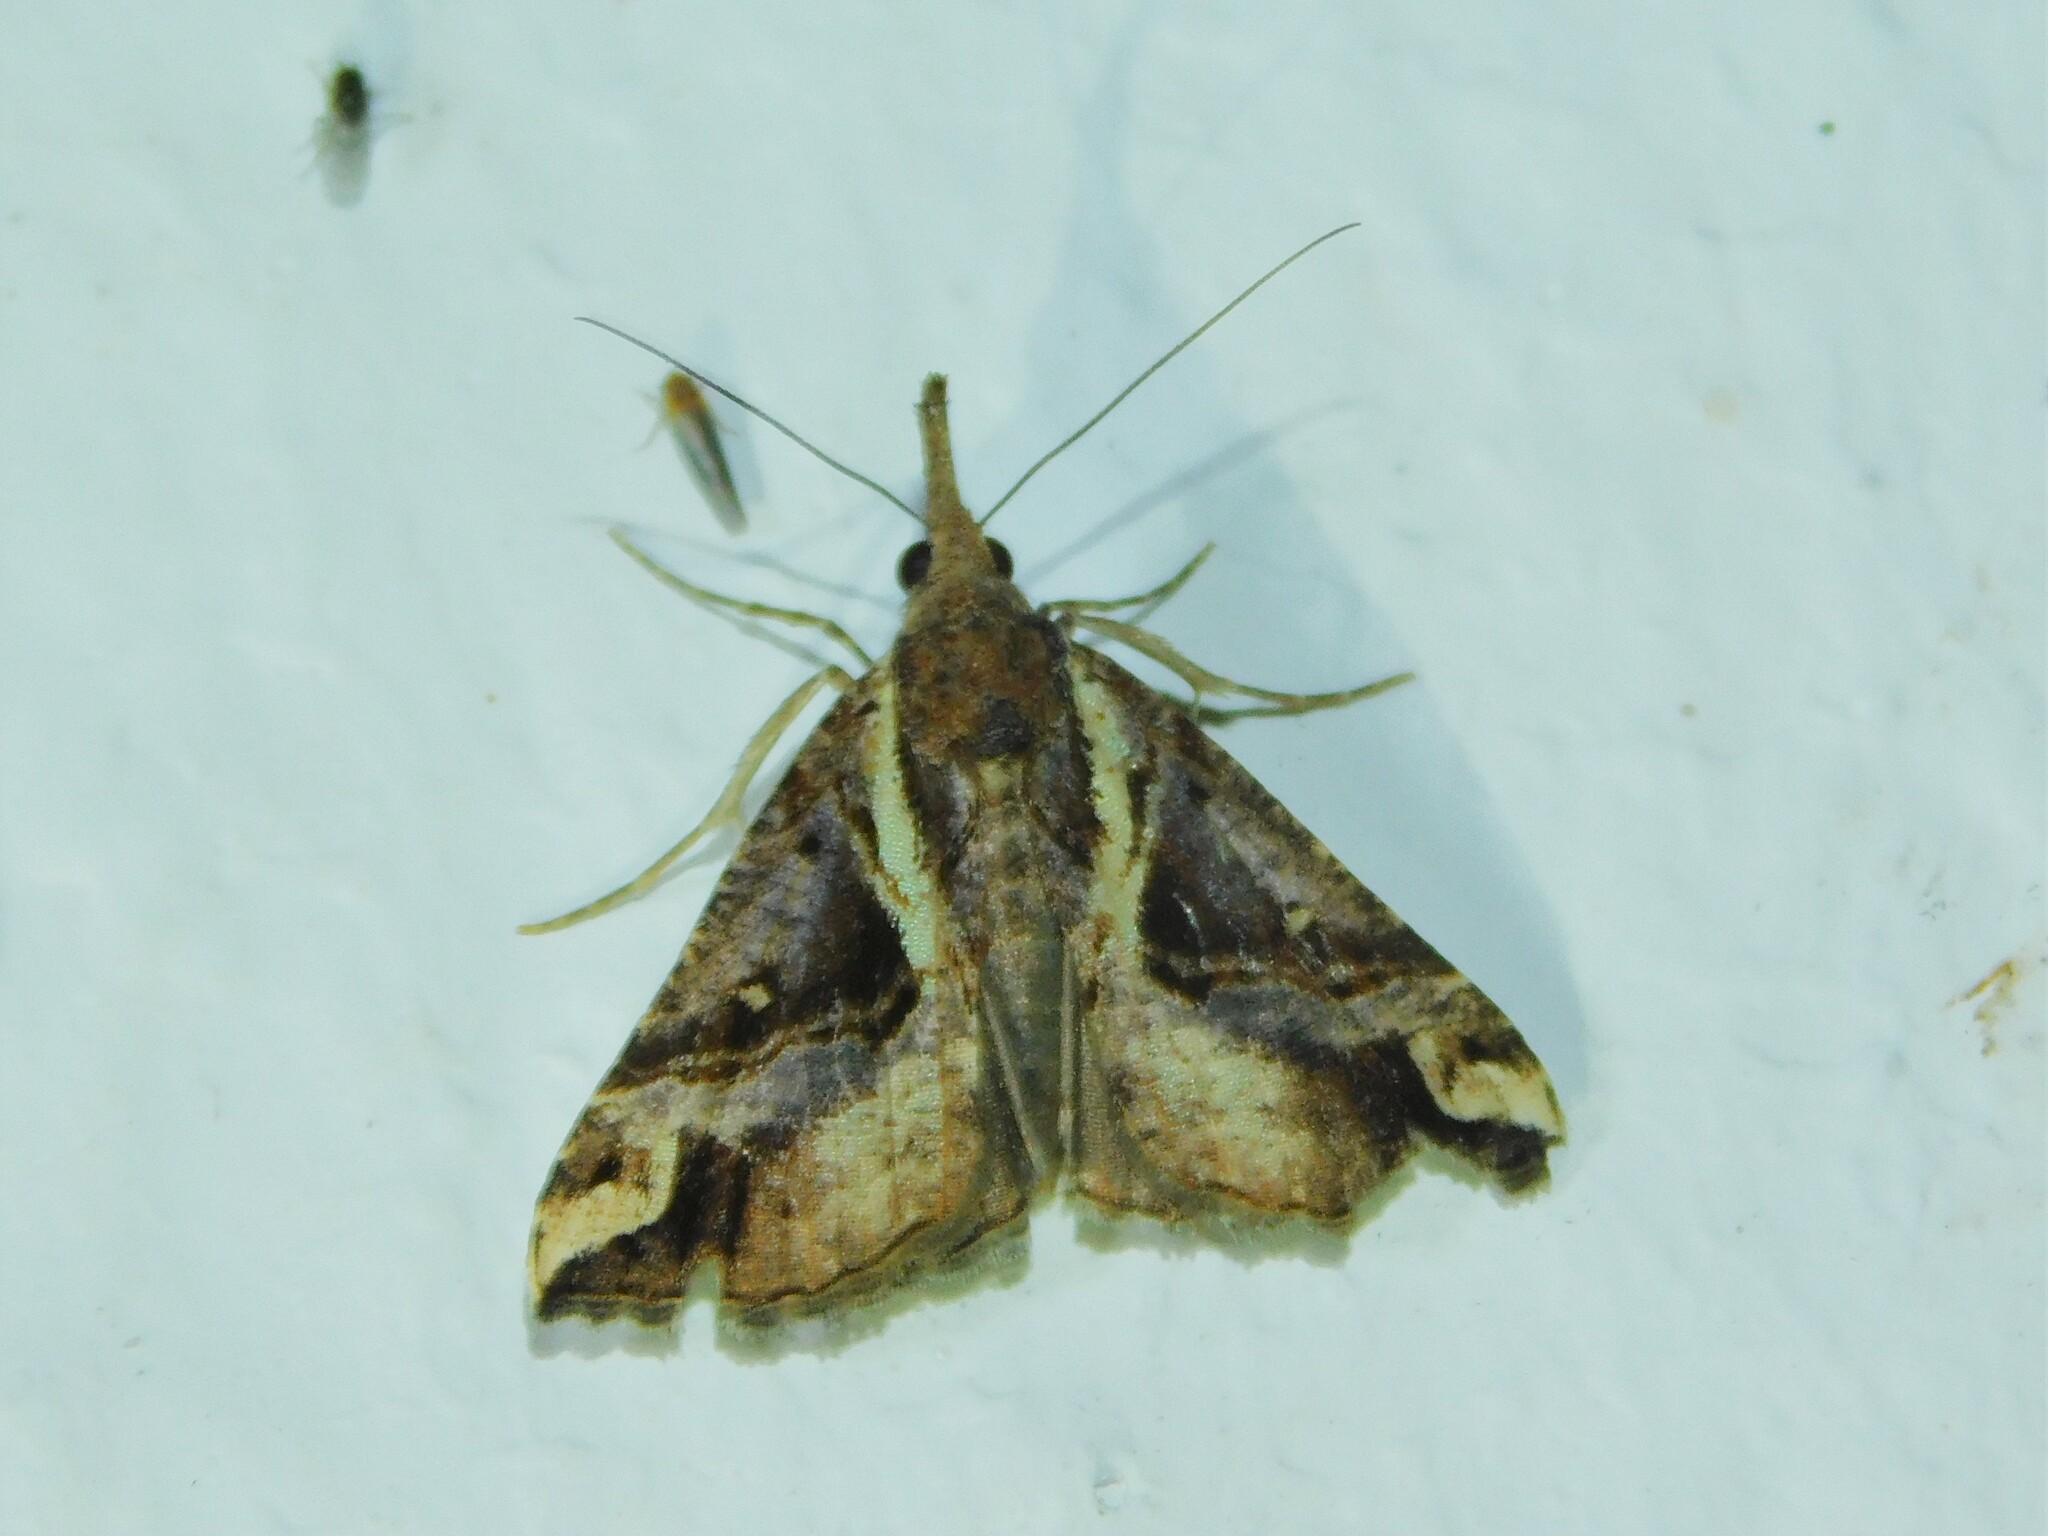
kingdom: Animalia
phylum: Arthropoda
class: Insecta
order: Lepidoptera
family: Erebidae
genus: Hypena
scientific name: Hypena varialis
